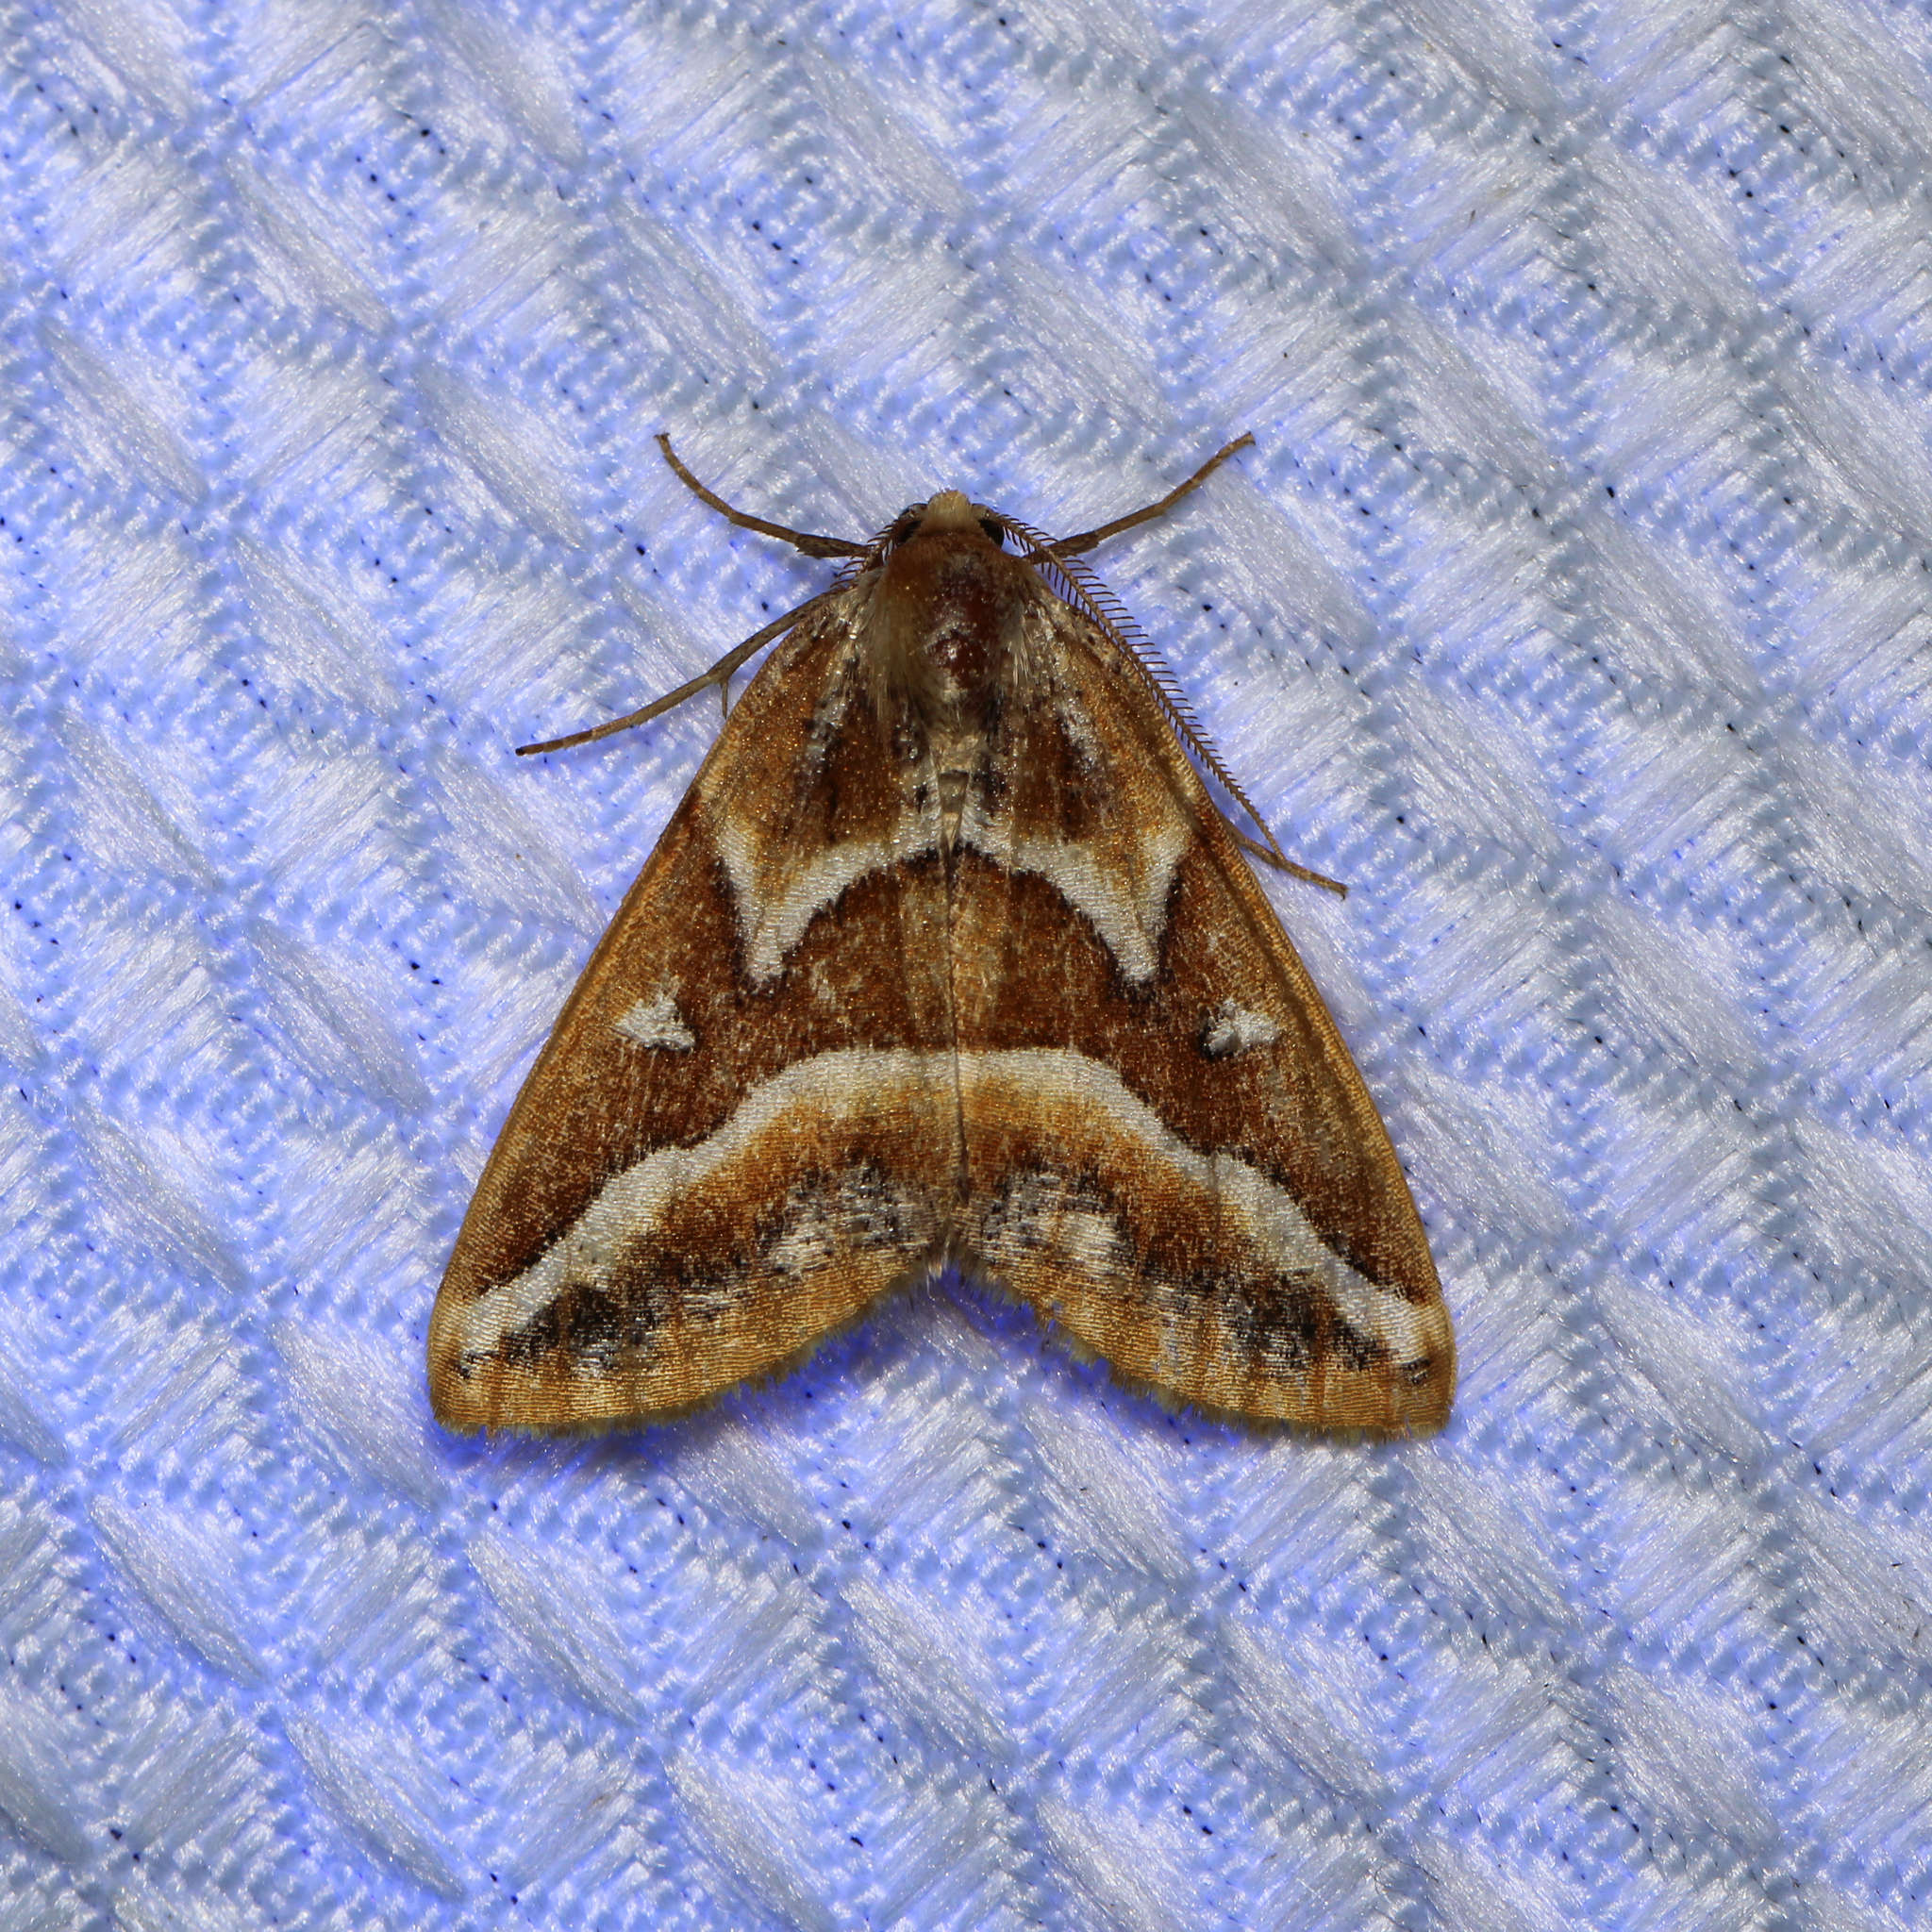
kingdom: Animalia
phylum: Arthropoda
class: Insecta
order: Lepidoptera
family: Geometridae
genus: Caripeta
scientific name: Caripeta angustiorata
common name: Brown pine looper
